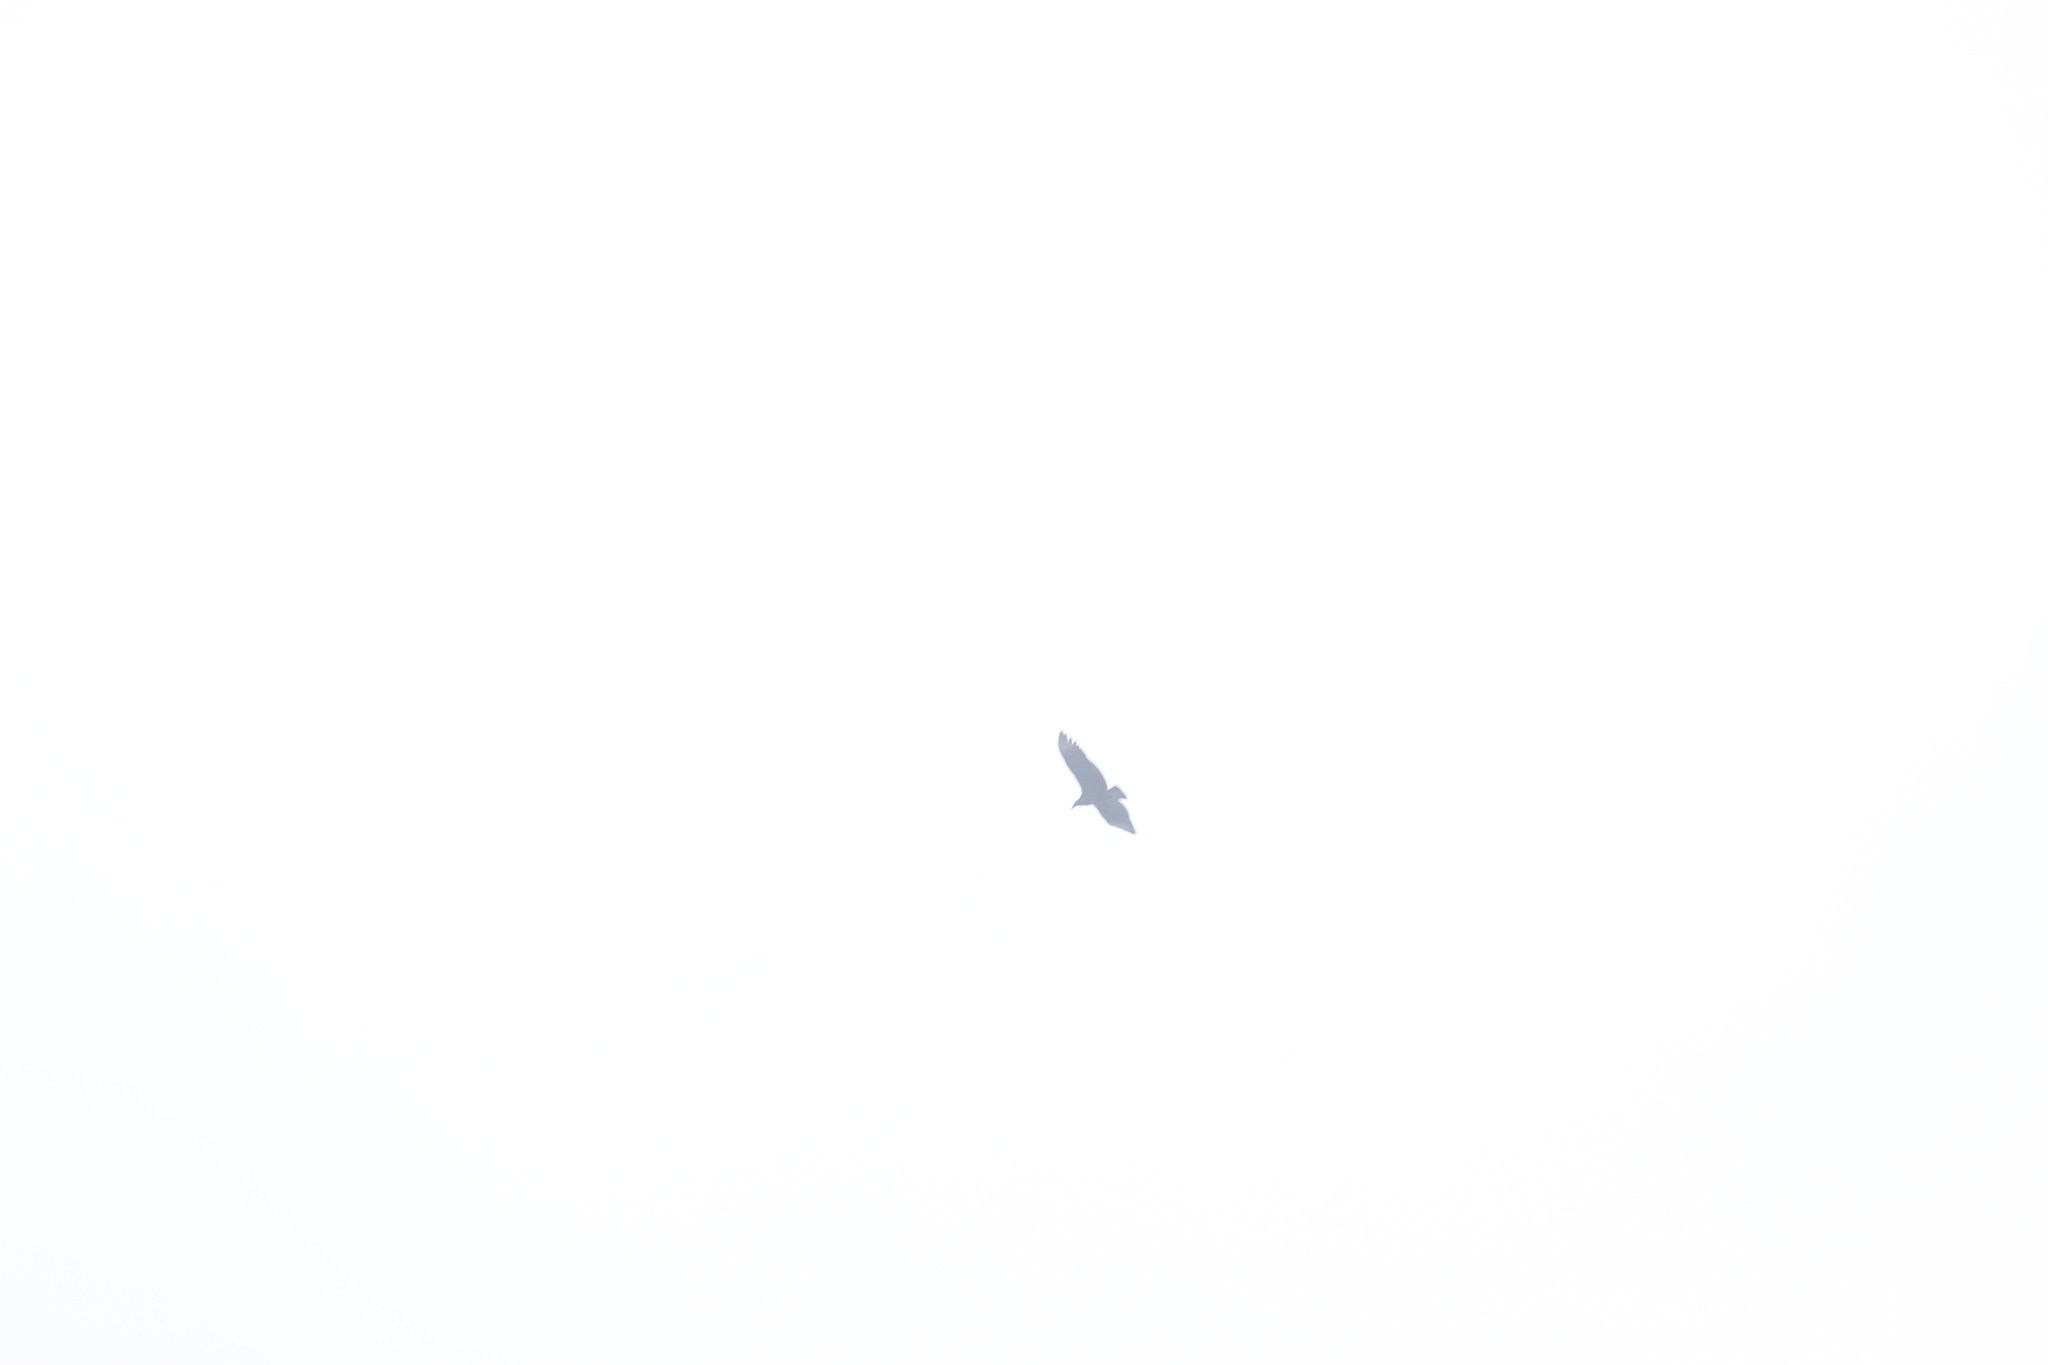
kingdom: Animalia
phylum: Chordata
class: Aves
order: Accipitriformes
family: Cathartidae
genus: Coragyps
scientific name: Coragyps atratus
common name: Black vulture
